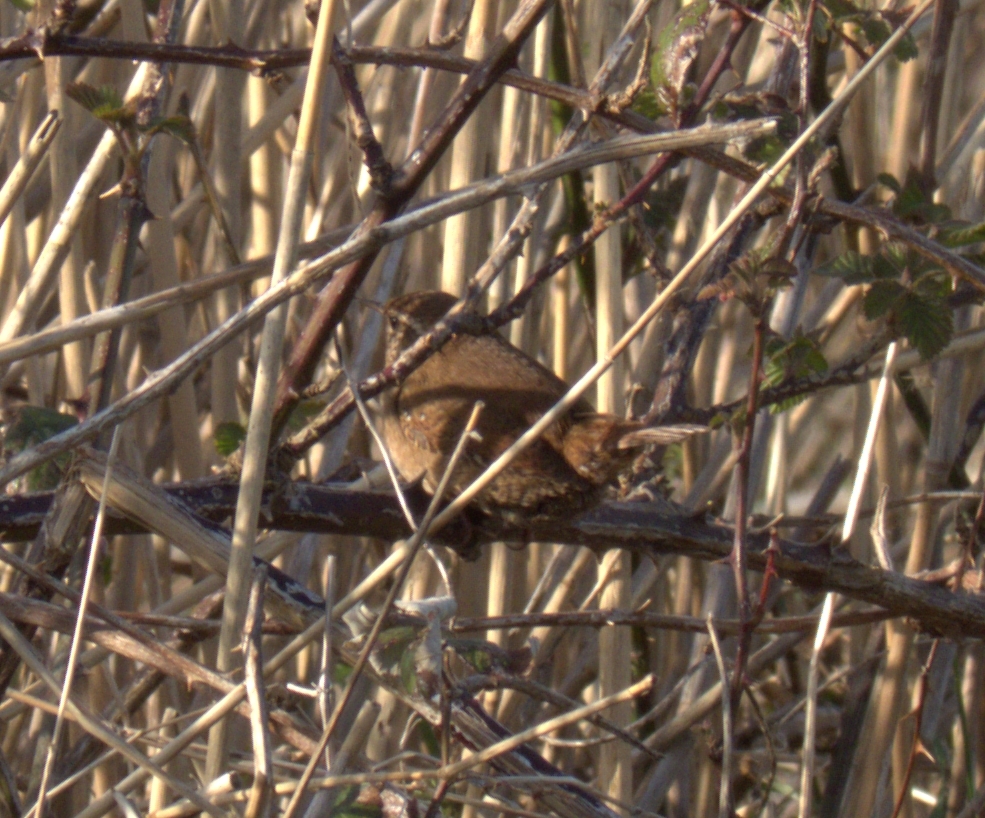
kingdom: Animalia
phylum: Chordata
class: Aves
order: Passeriformes
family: Troglodytidae
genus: Troglodytes
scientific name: Troglodytes troglodytes
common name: Eurasian wren
